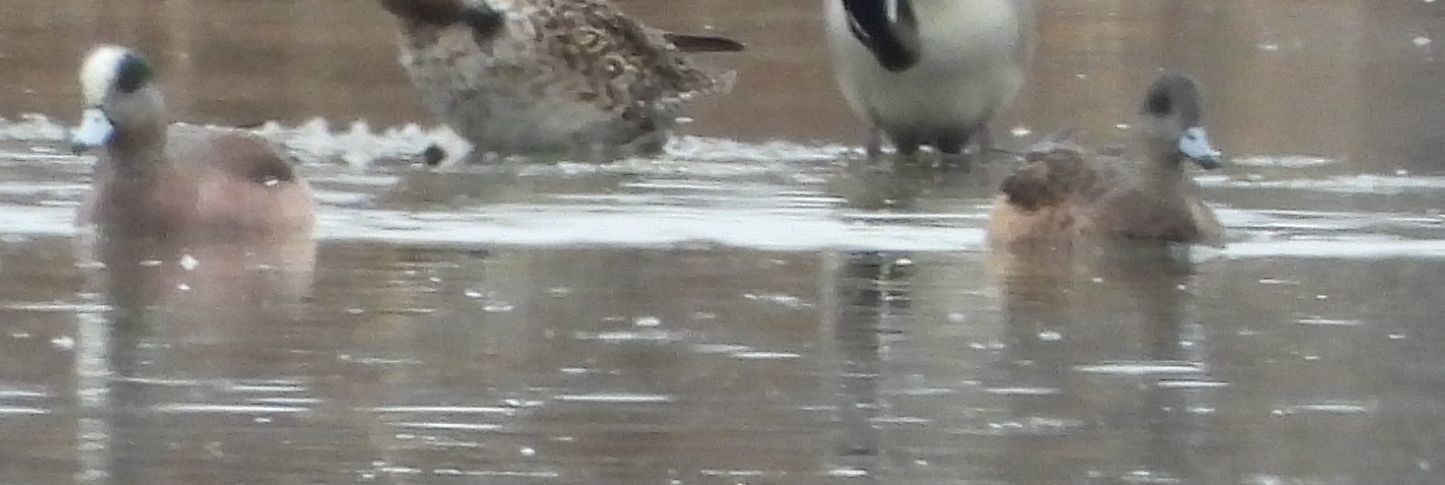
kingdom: Animalia
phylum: Chordata
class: Aves
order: Anseriformes
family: Anatidae
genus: Mareca
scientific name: Mareca americana
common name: American wigeon
